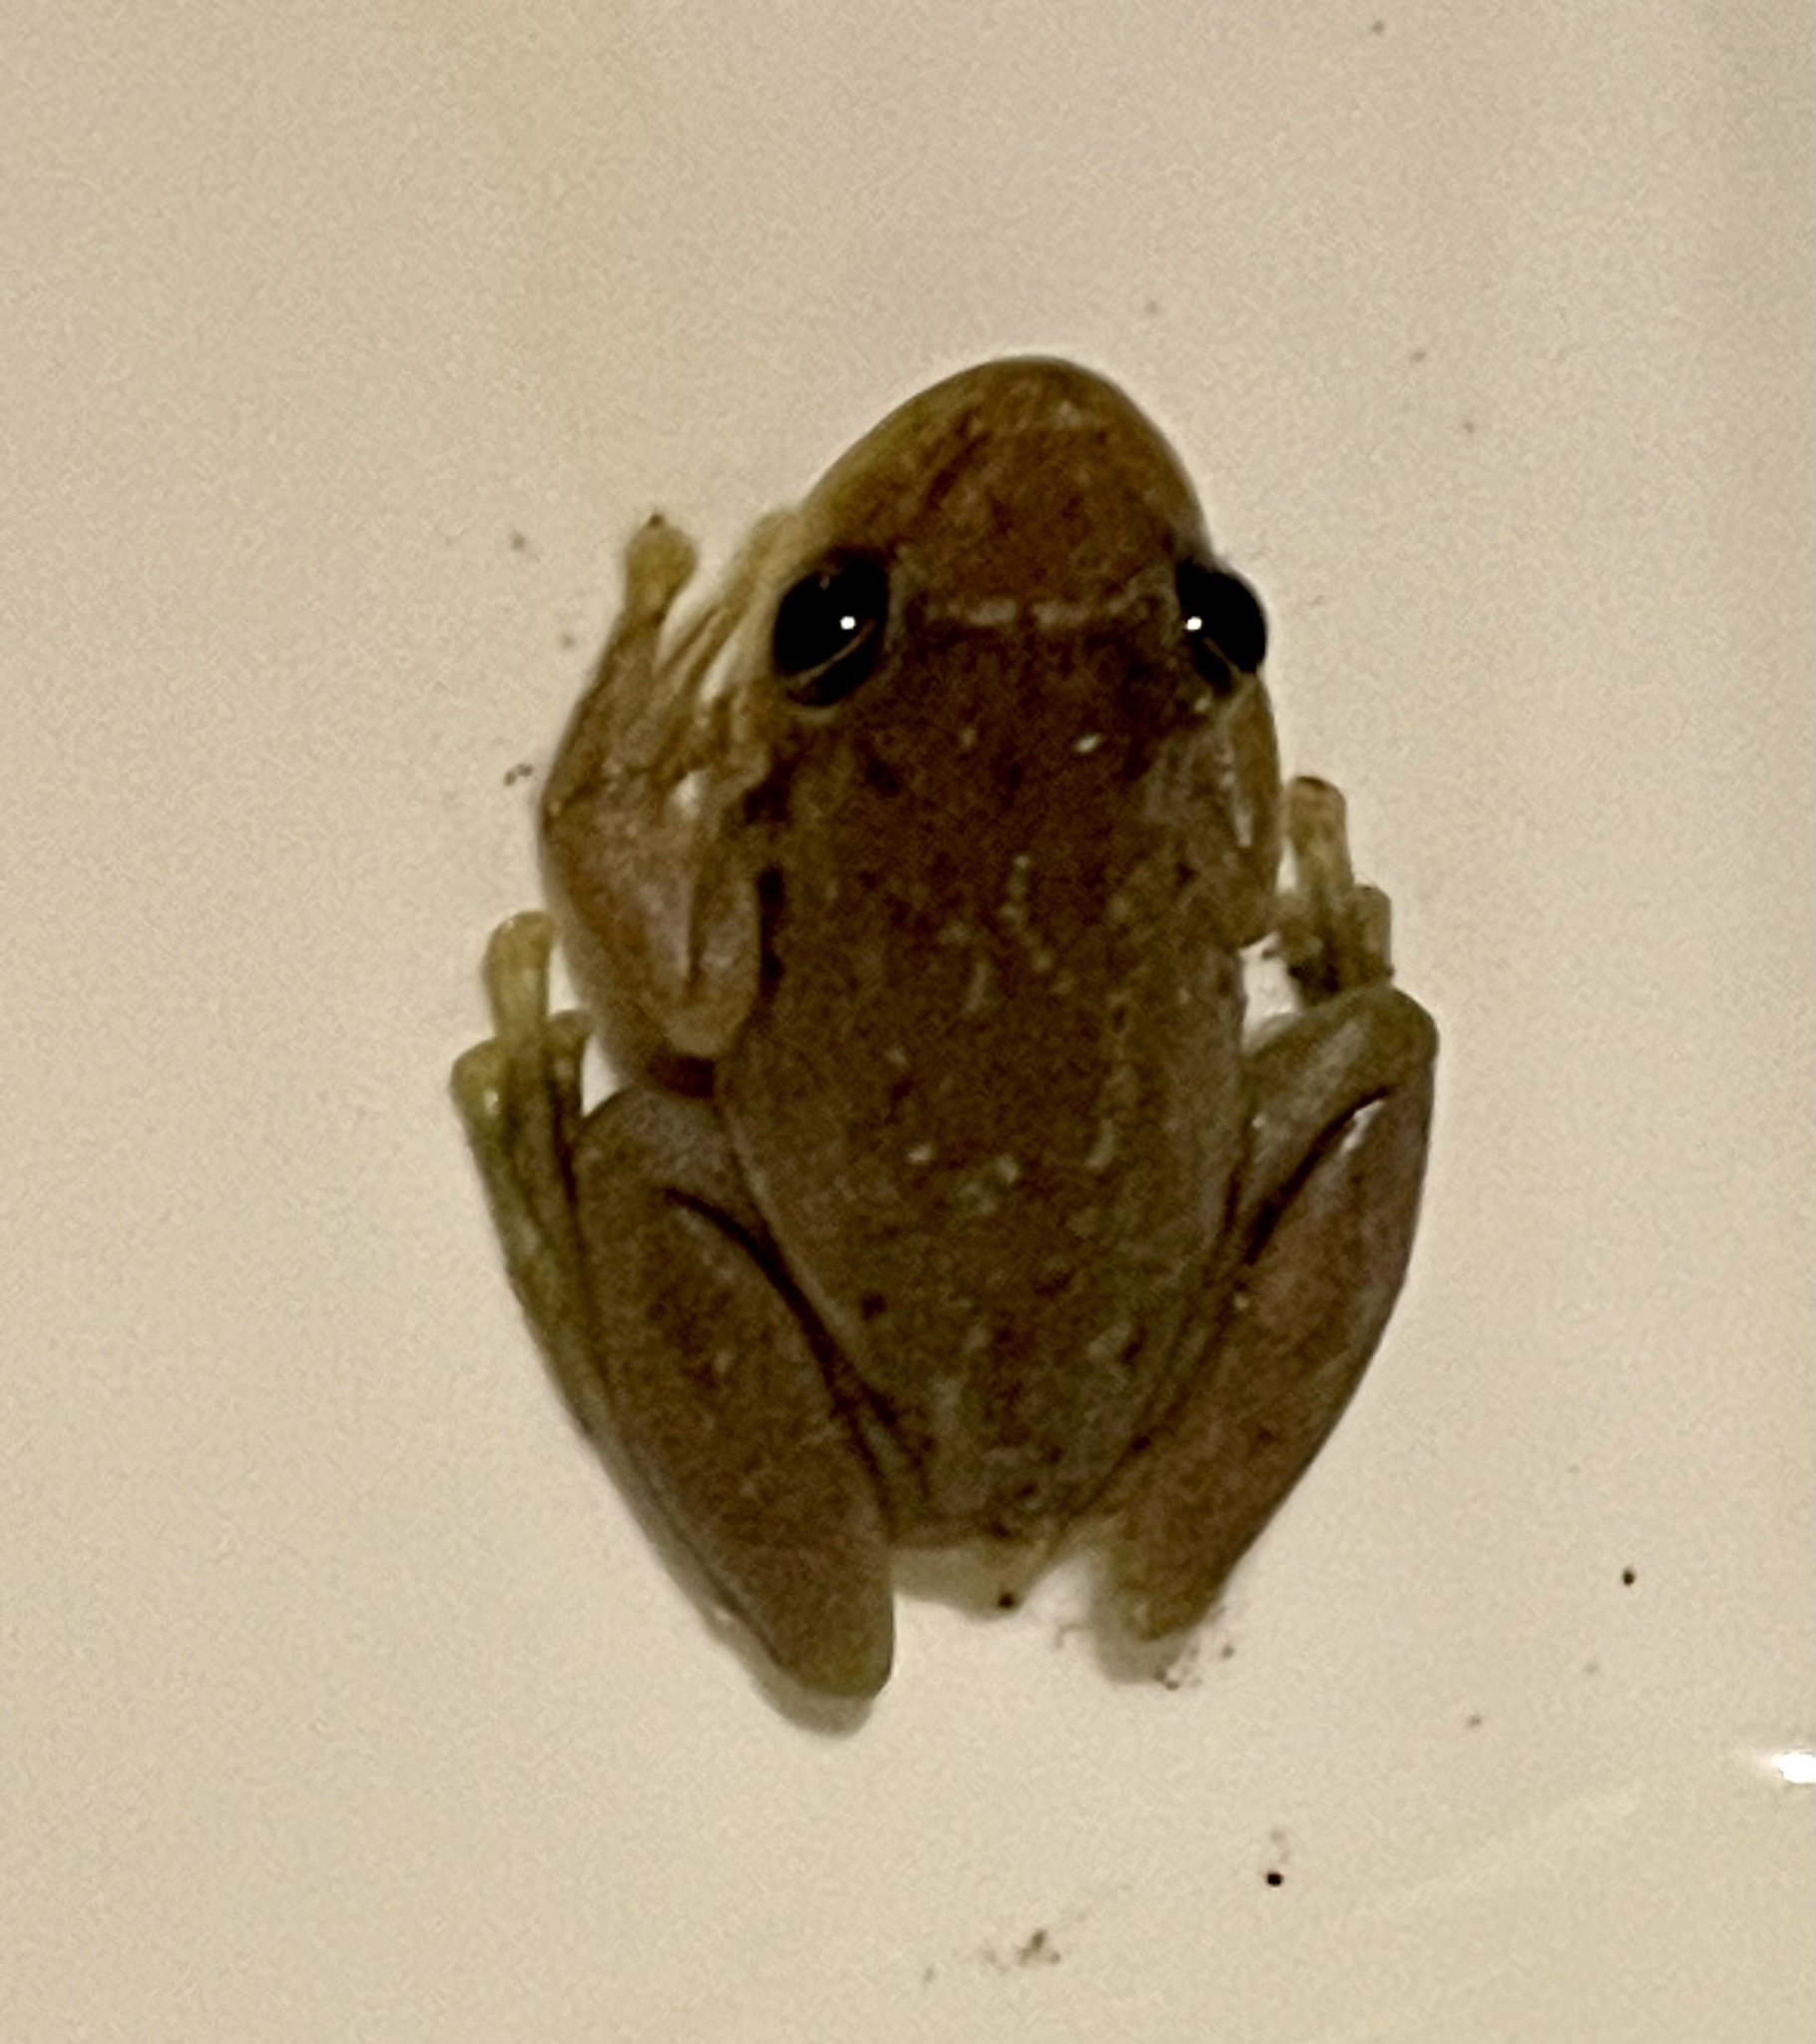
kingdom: Animalia
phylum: Chordata
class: Amphibia
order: Anura
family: Hylidae
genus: Scinax
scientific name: Scinax ruber
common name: Red snouted treefrog
